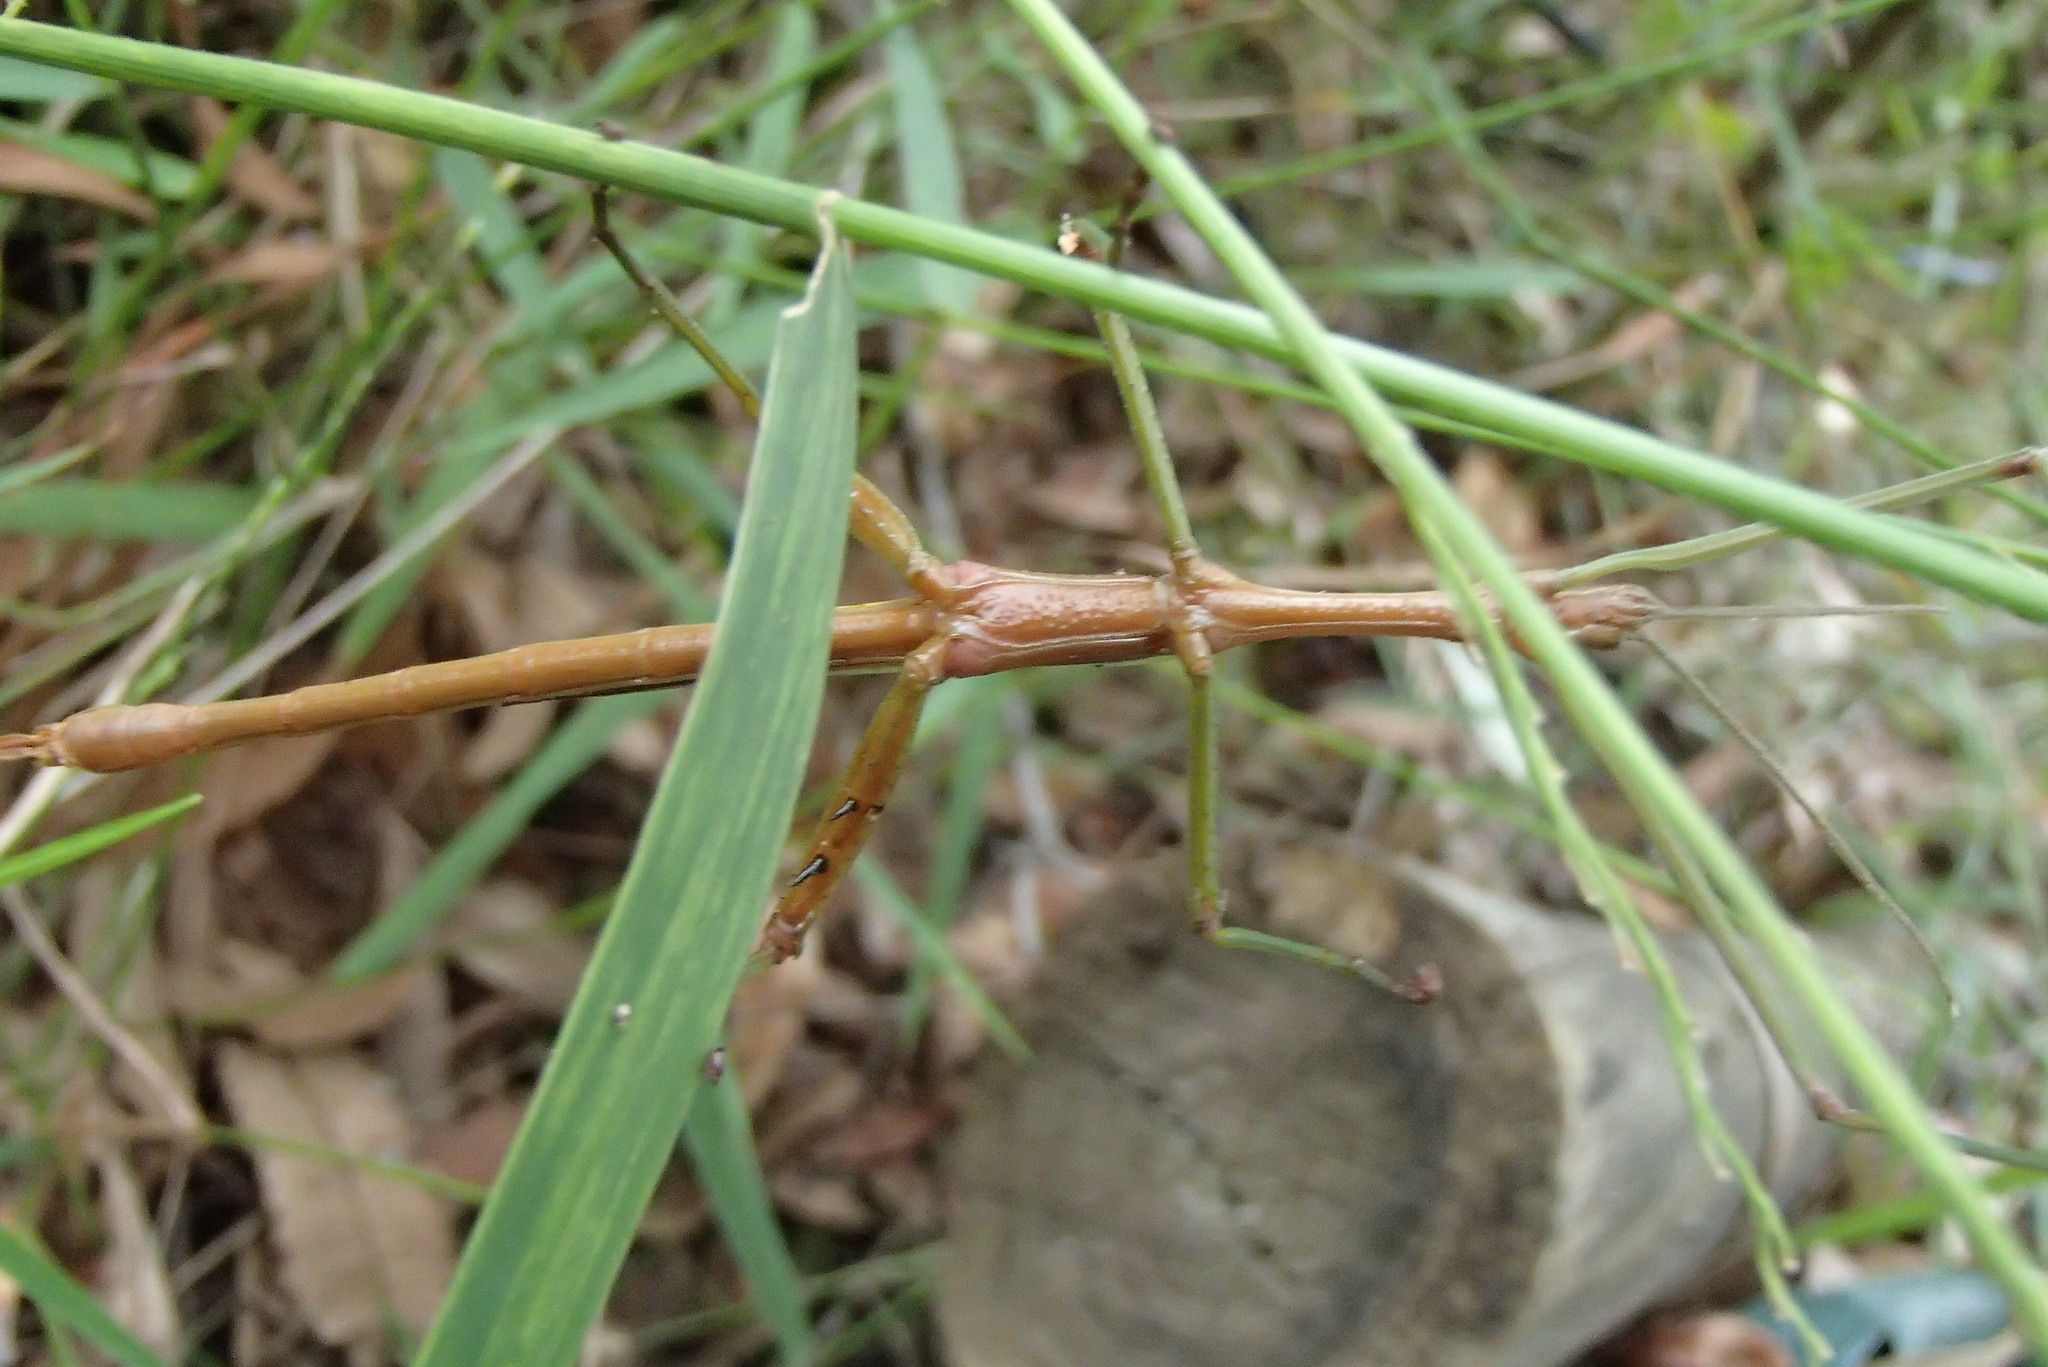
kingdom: Animalia
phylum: Arthropoda
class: Insecta
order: Phasmida
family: Phasmatidae
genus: Didymuria
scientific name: Didymuria violescens
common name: Spur-legged stick-insect
